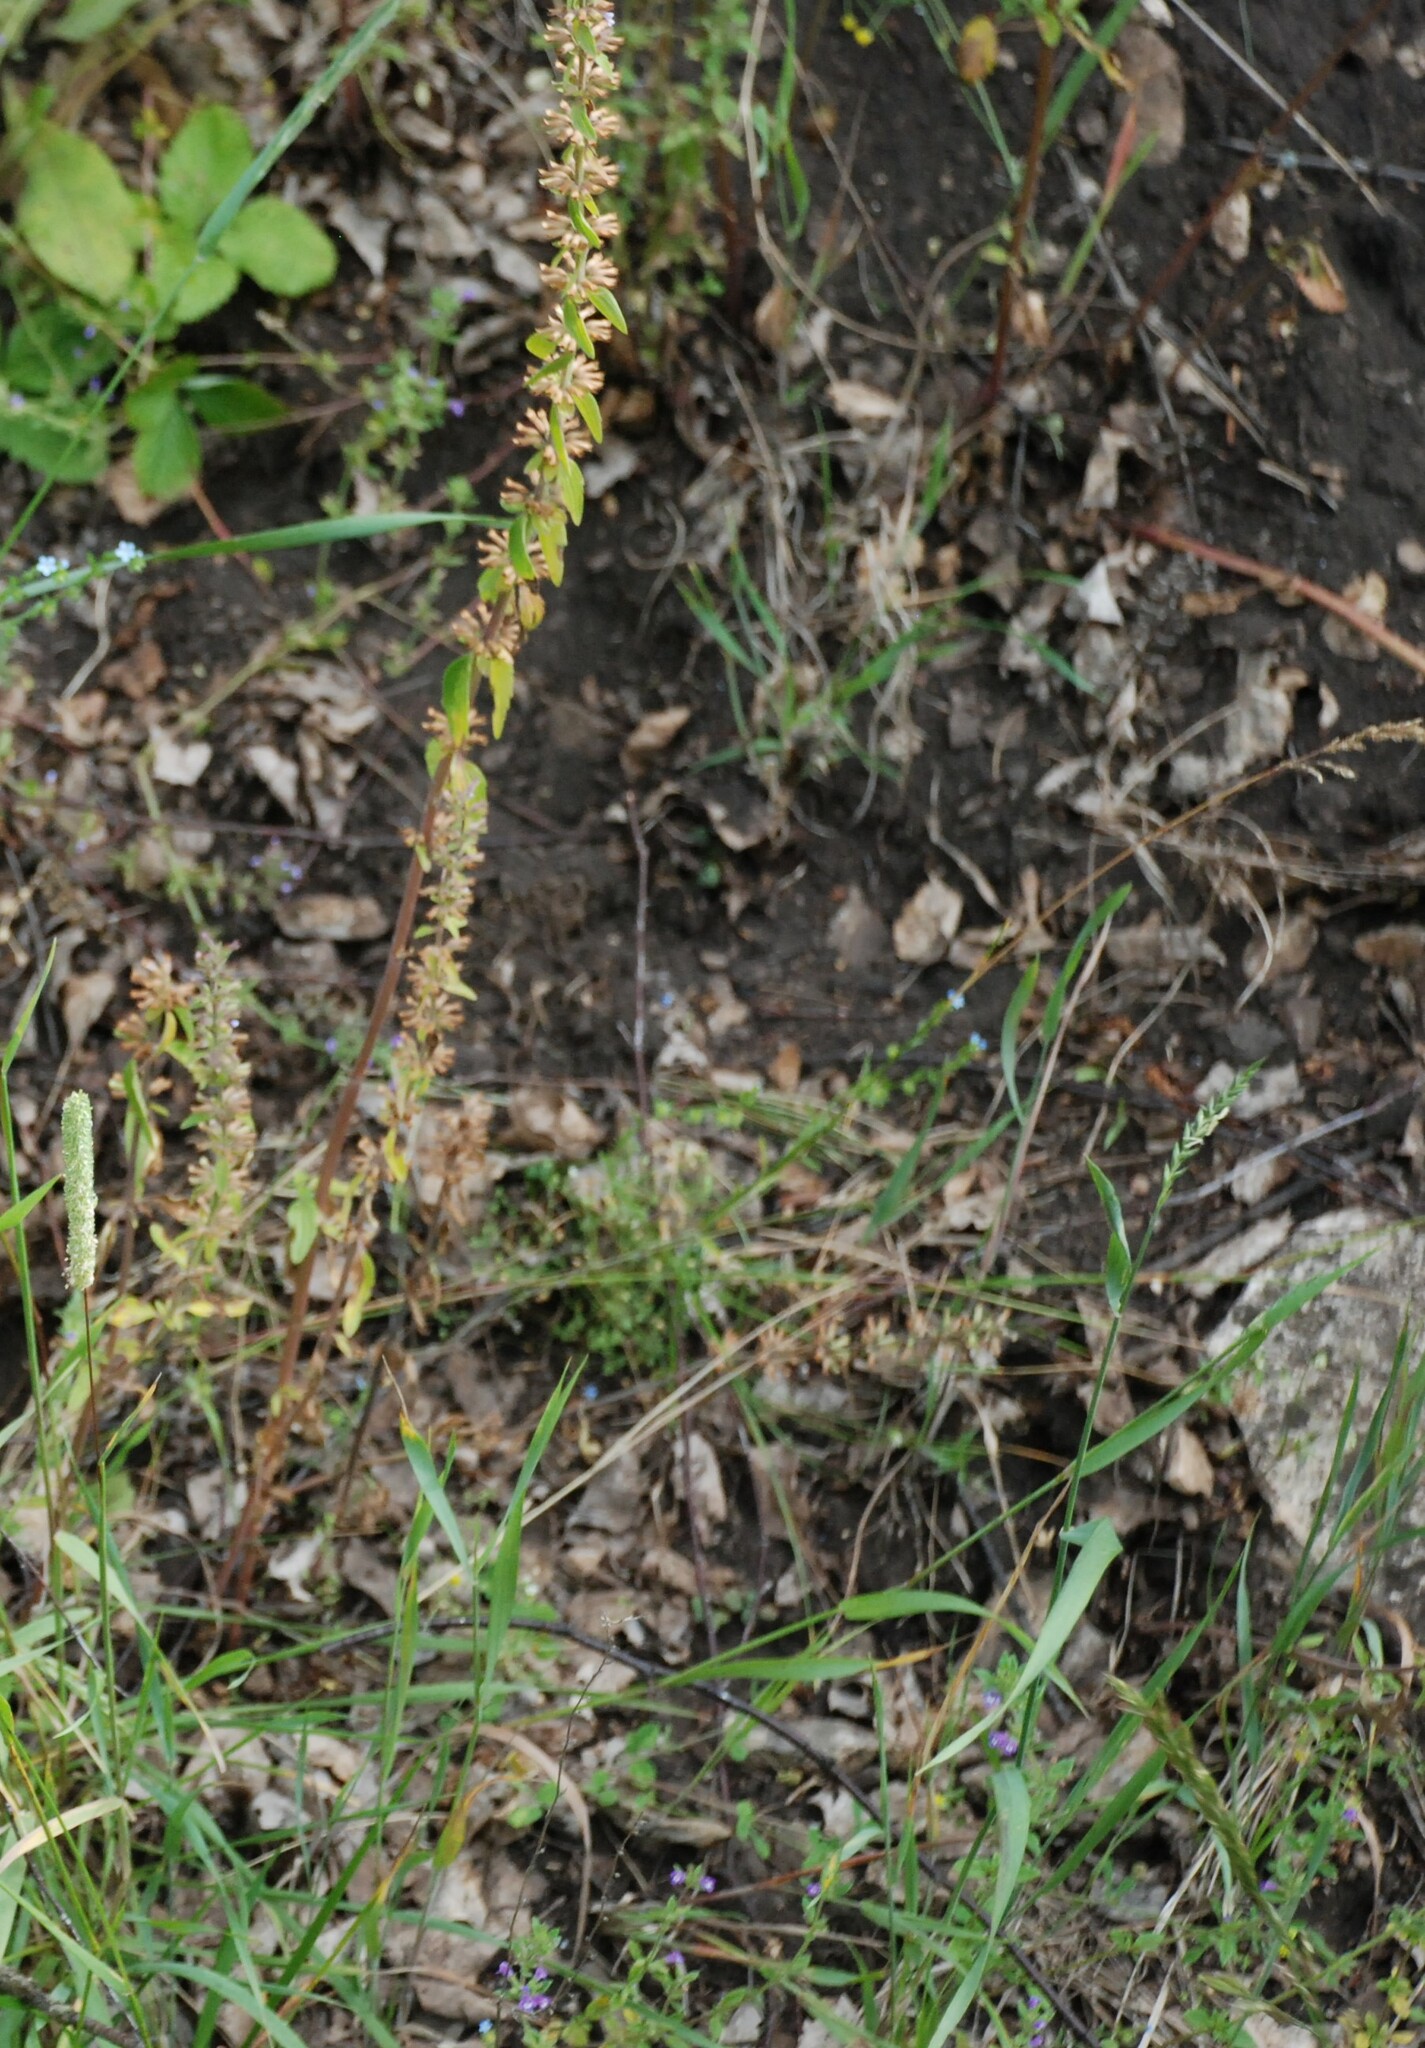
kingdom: Plantae
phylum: Tracheophyta
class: Magnoliopsida
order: Lamiales
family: Lamiaceae
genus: Dracocephalum
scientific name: Dracocephalum thymiflorum
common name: Thymeleaf dragonhead
